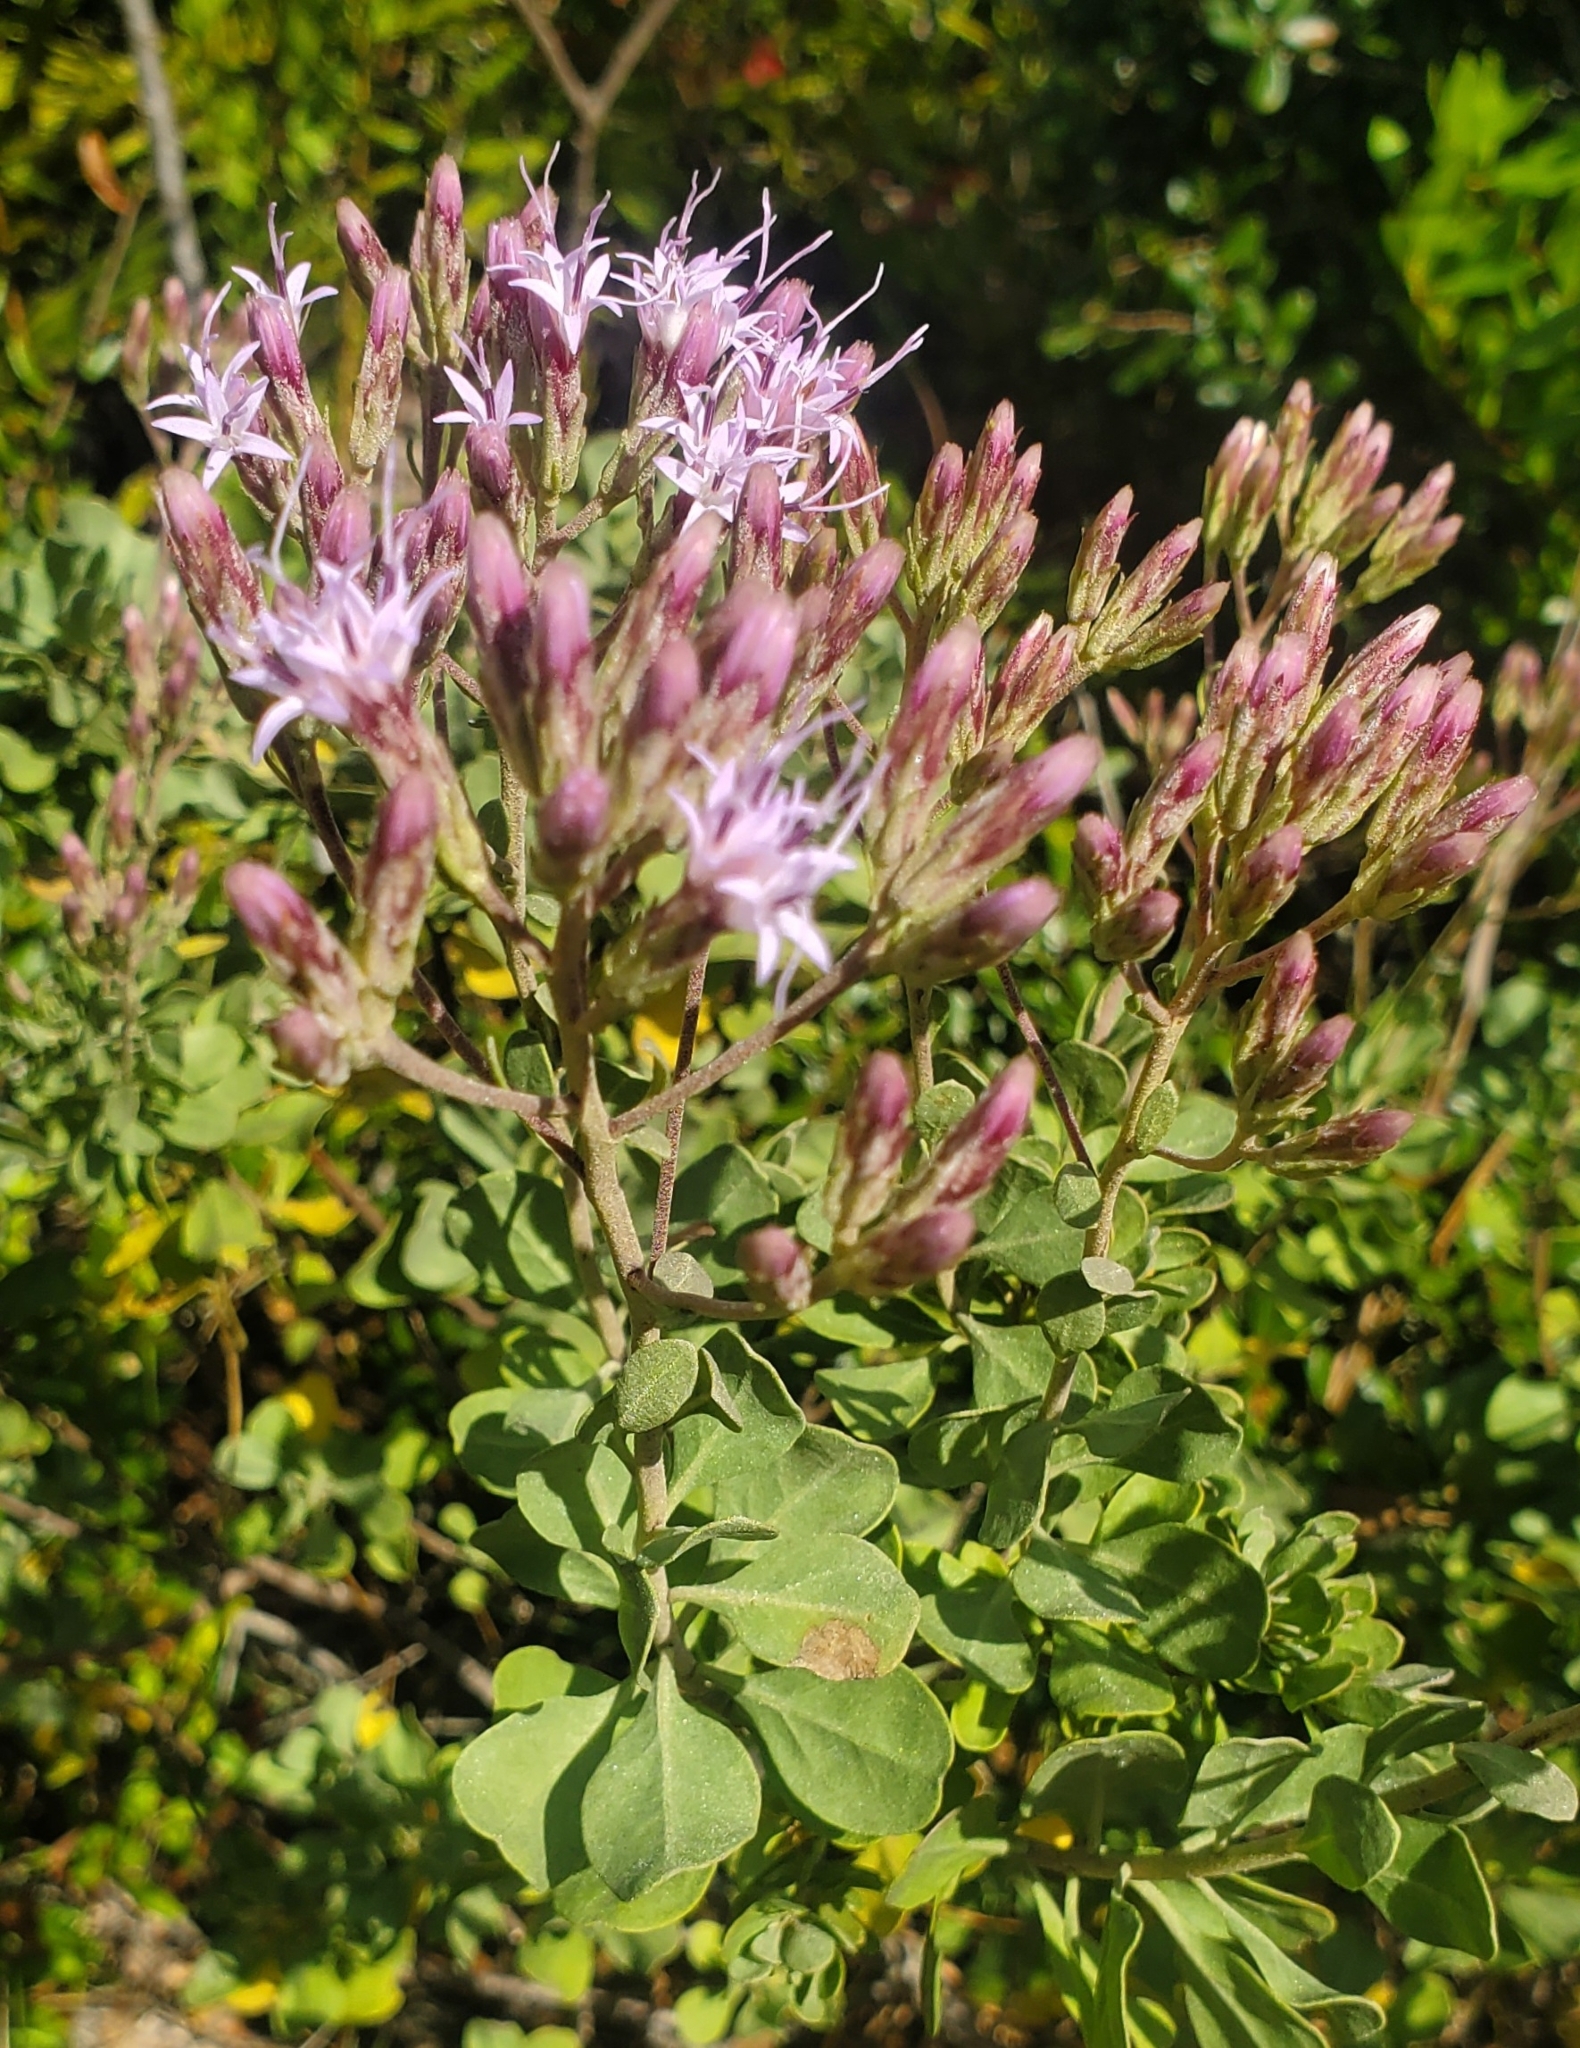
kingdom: Plantae
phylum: Tracheophyta
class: Magnoliopsida
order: Asterales
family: Asteraceae
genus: Garberia
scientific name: Garberia heterophylla
